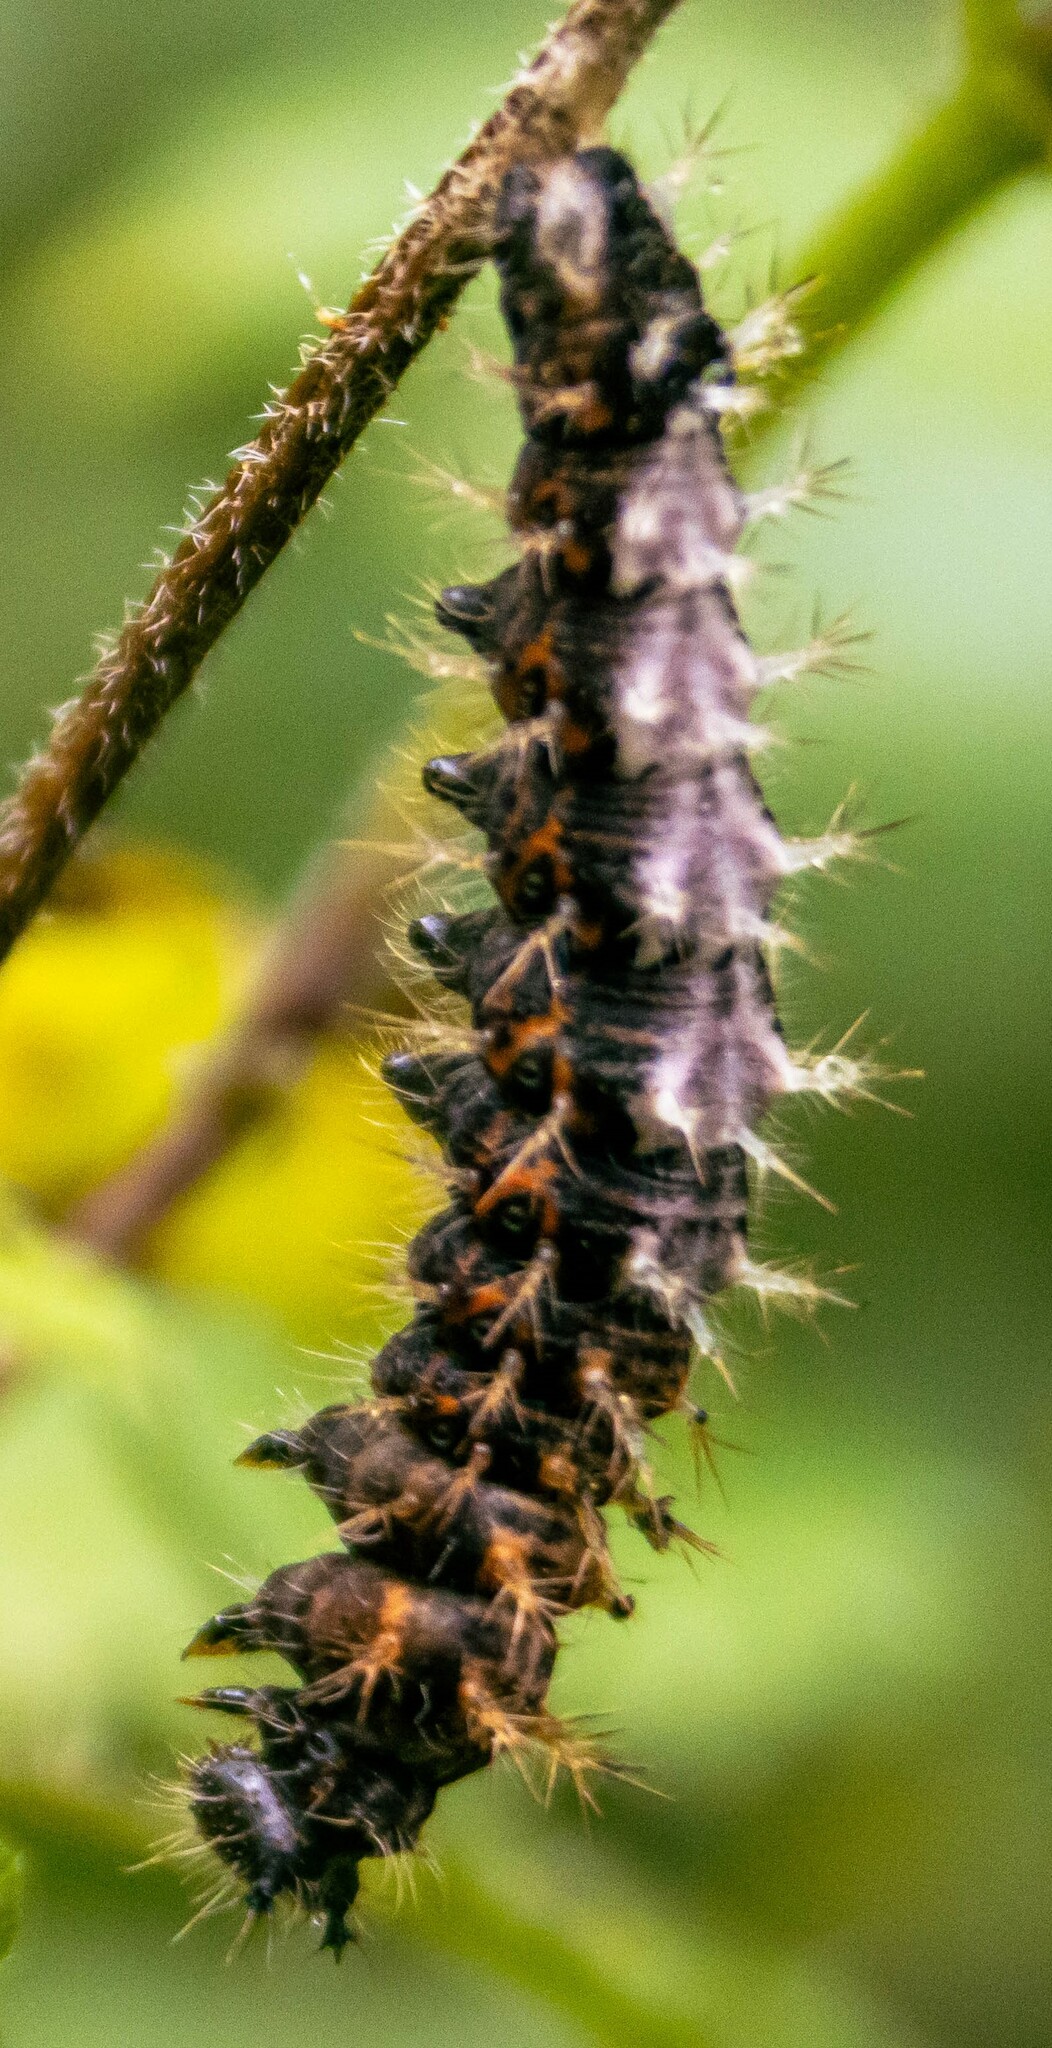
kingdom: Animalia
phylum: Arthropoda
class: Insecta
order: Lepidoptera
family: Nymphalidae
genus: Polygonia
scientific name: Polygonia c-album
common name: Comma
